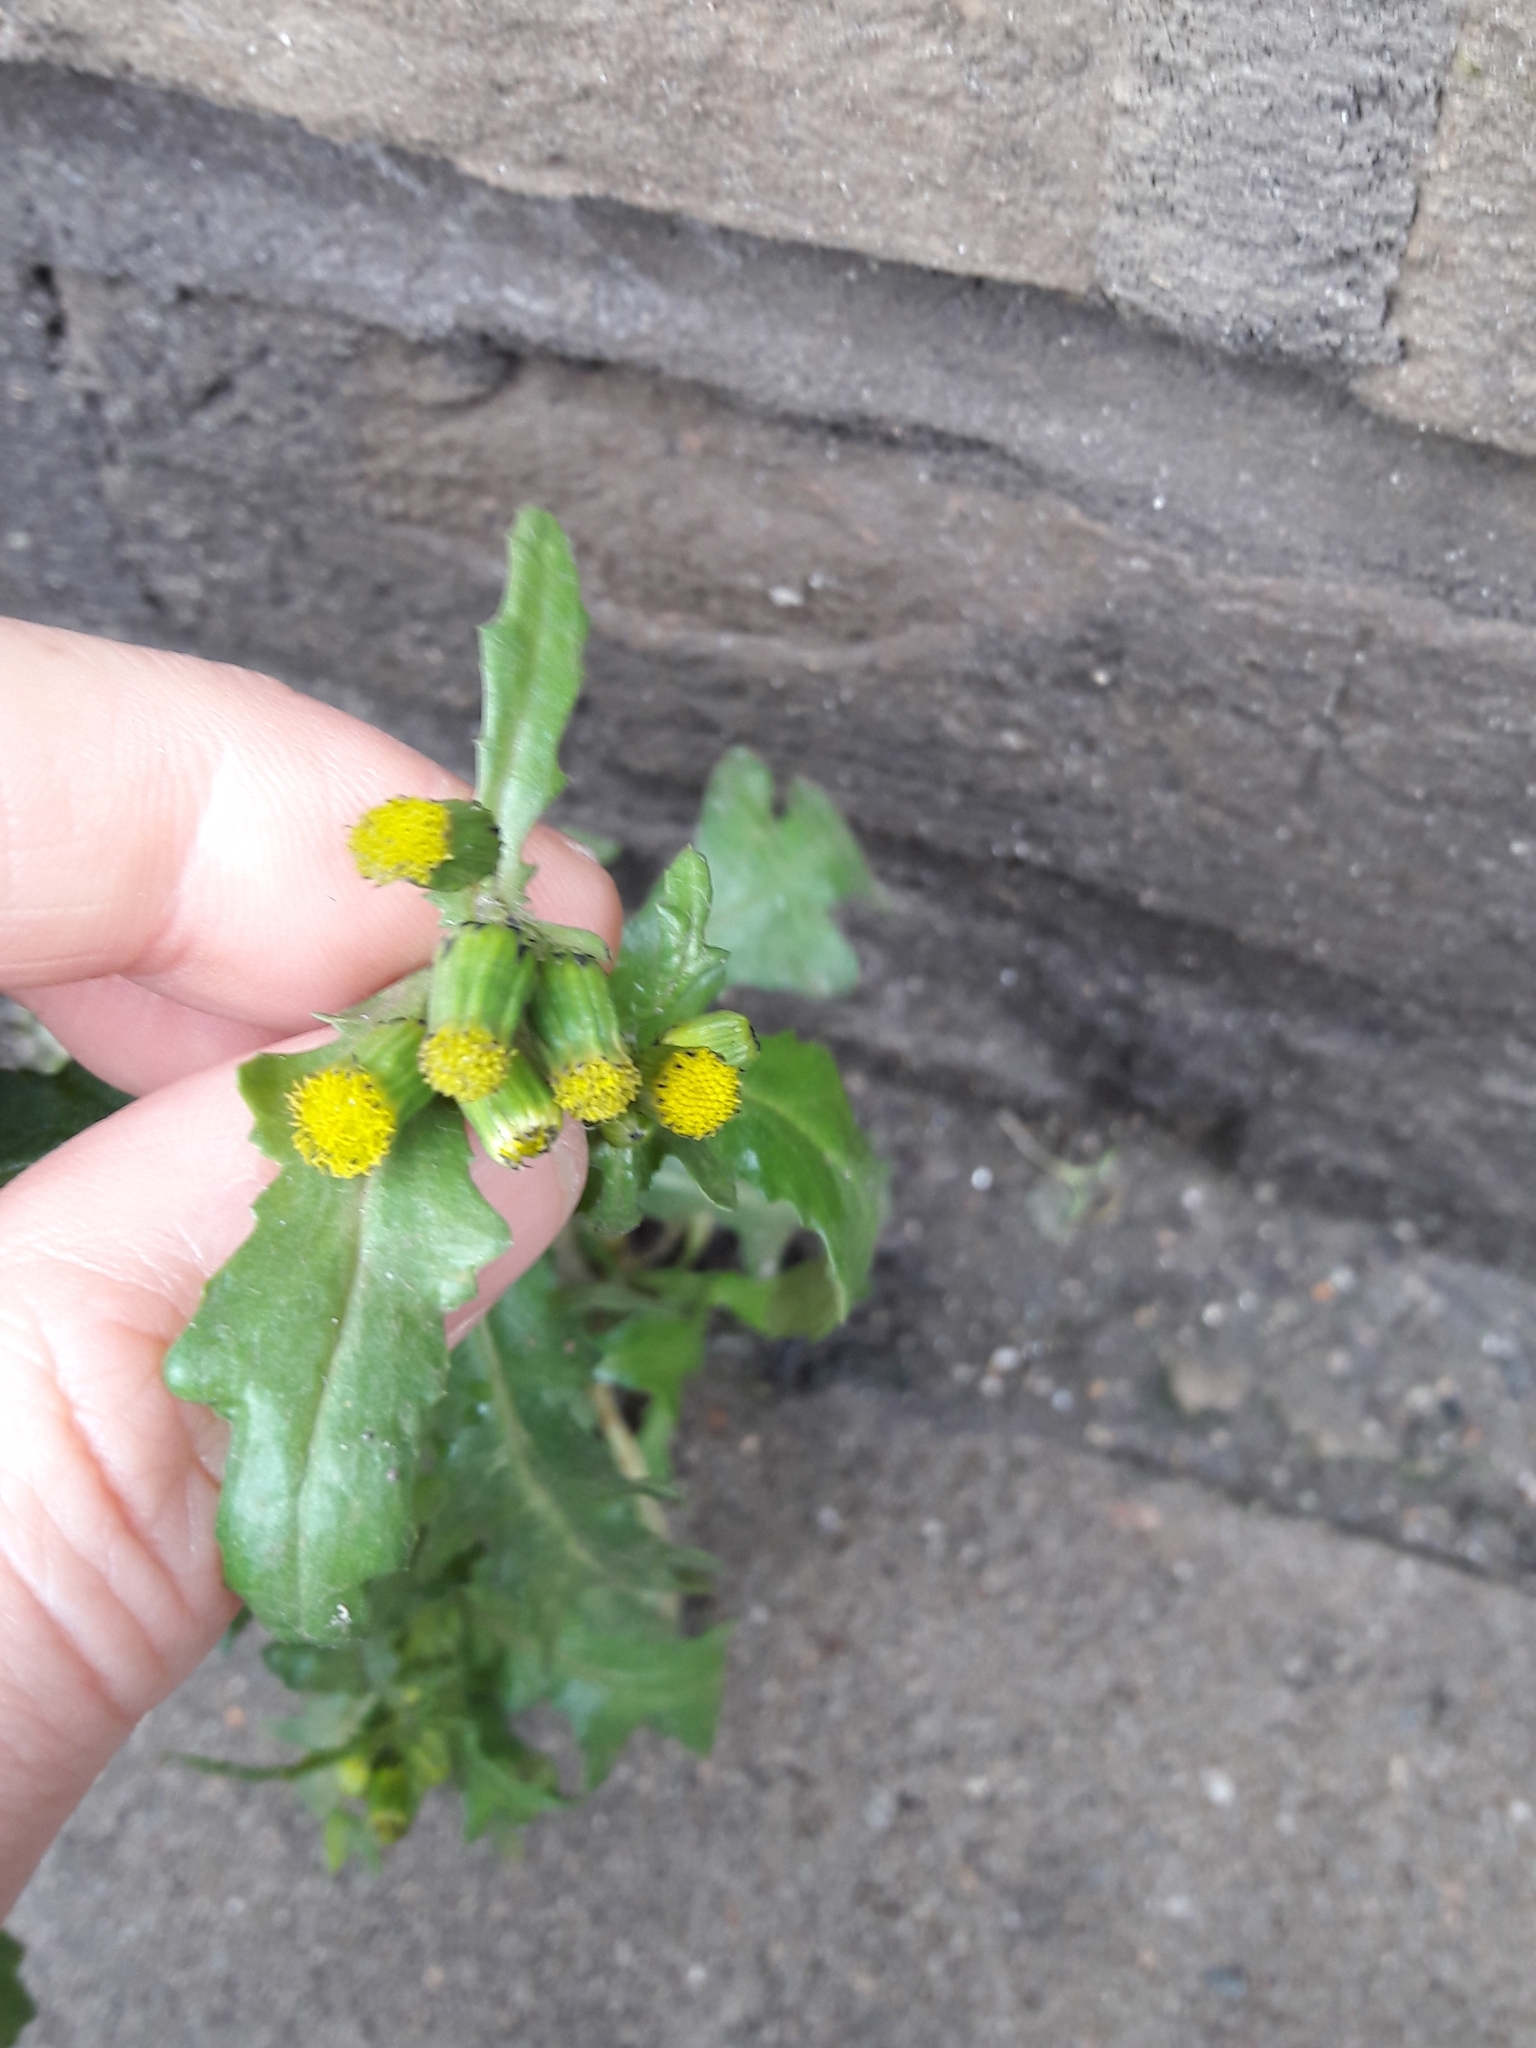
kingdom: Plantae
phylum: Tracheophyta
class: Magnoliopsida
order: Asterales
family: Asteraceae
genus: Senecio
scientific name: Senecio vulgaris
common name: Old-man-in-the-spring
